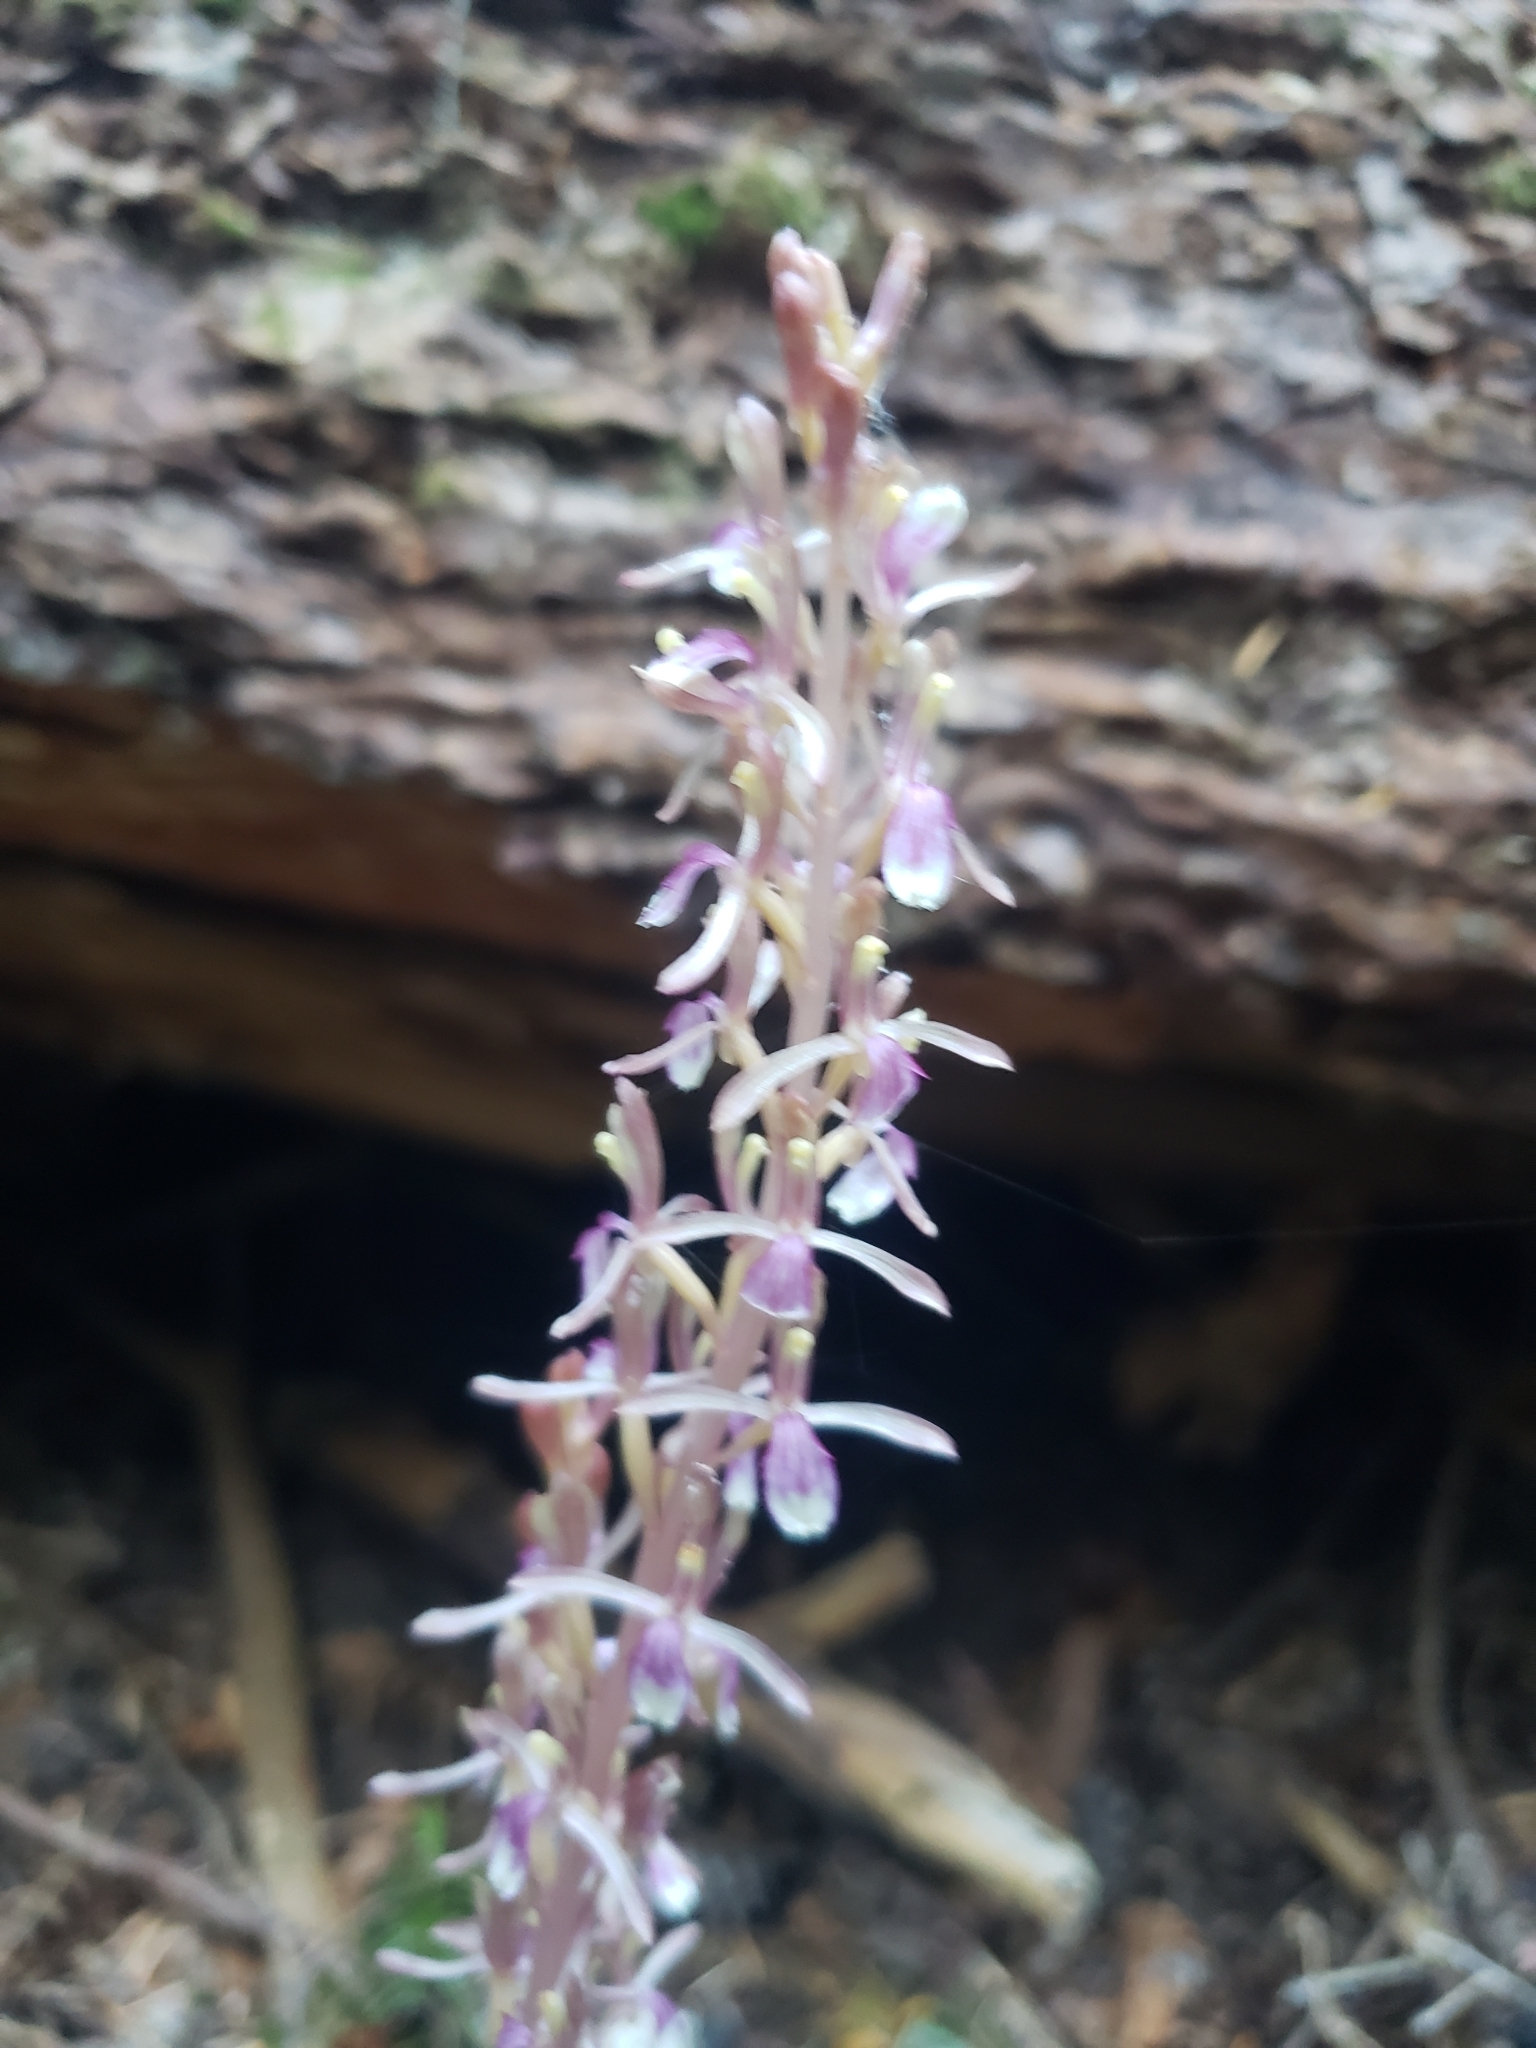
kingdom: Plantae
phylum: Tracheophyta
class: Liliopsida
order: Asparagales
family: Orchidaceae
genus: Corallorhiza
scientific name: Corallorhiza mertensiana
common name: Pacific coralroot
